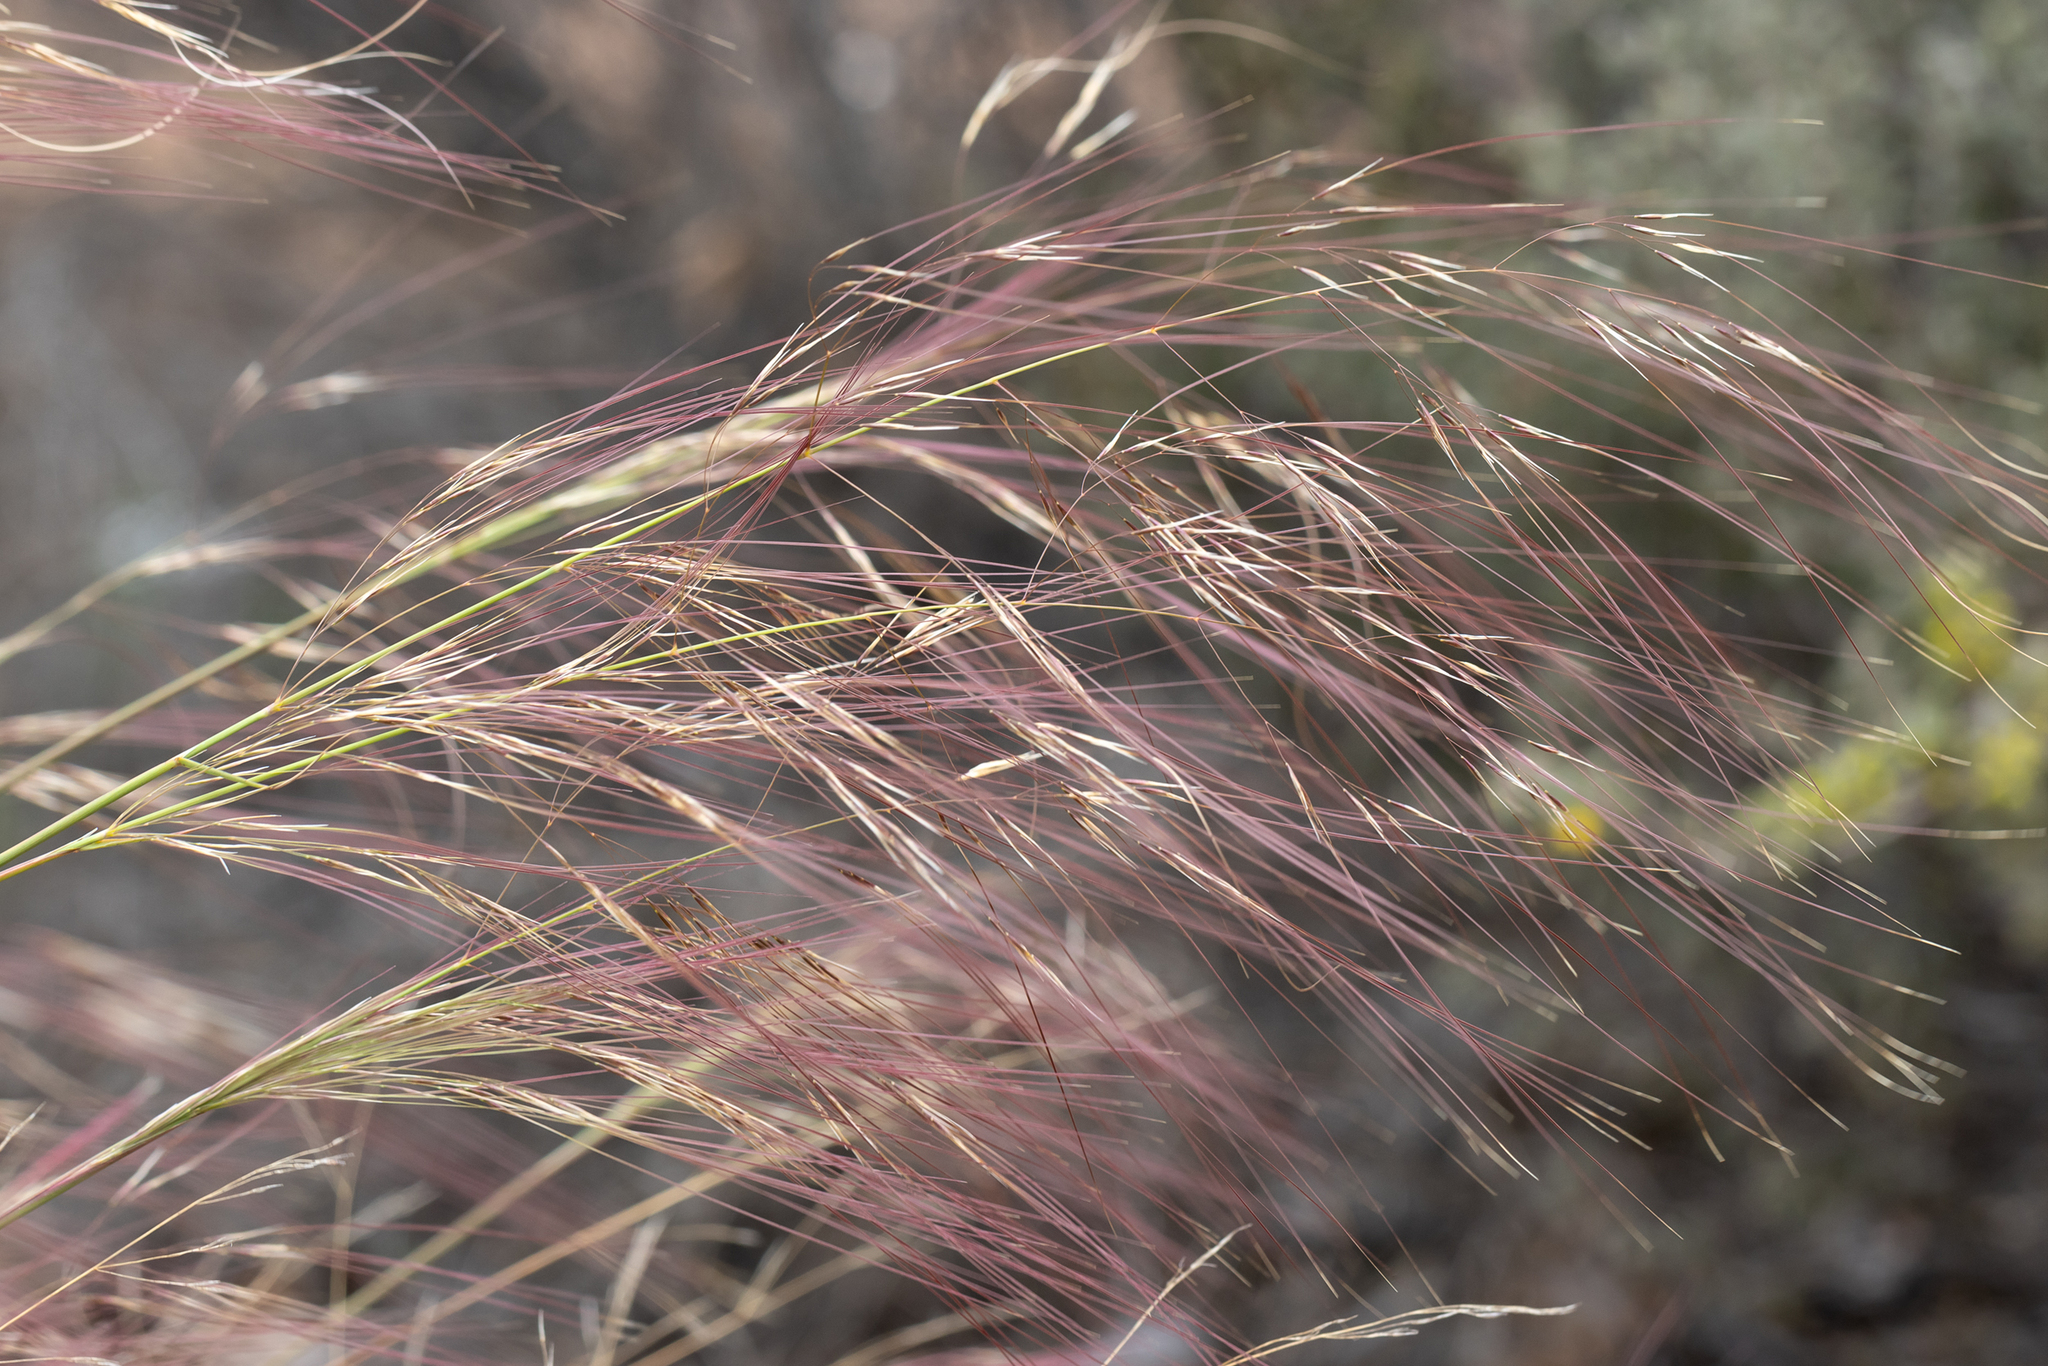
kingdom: Plantae
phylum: Tracheophyta
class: Liliopsida
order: Poales
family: Poaceae
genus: Austrostipa
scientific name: Austrostipa platychaeta
